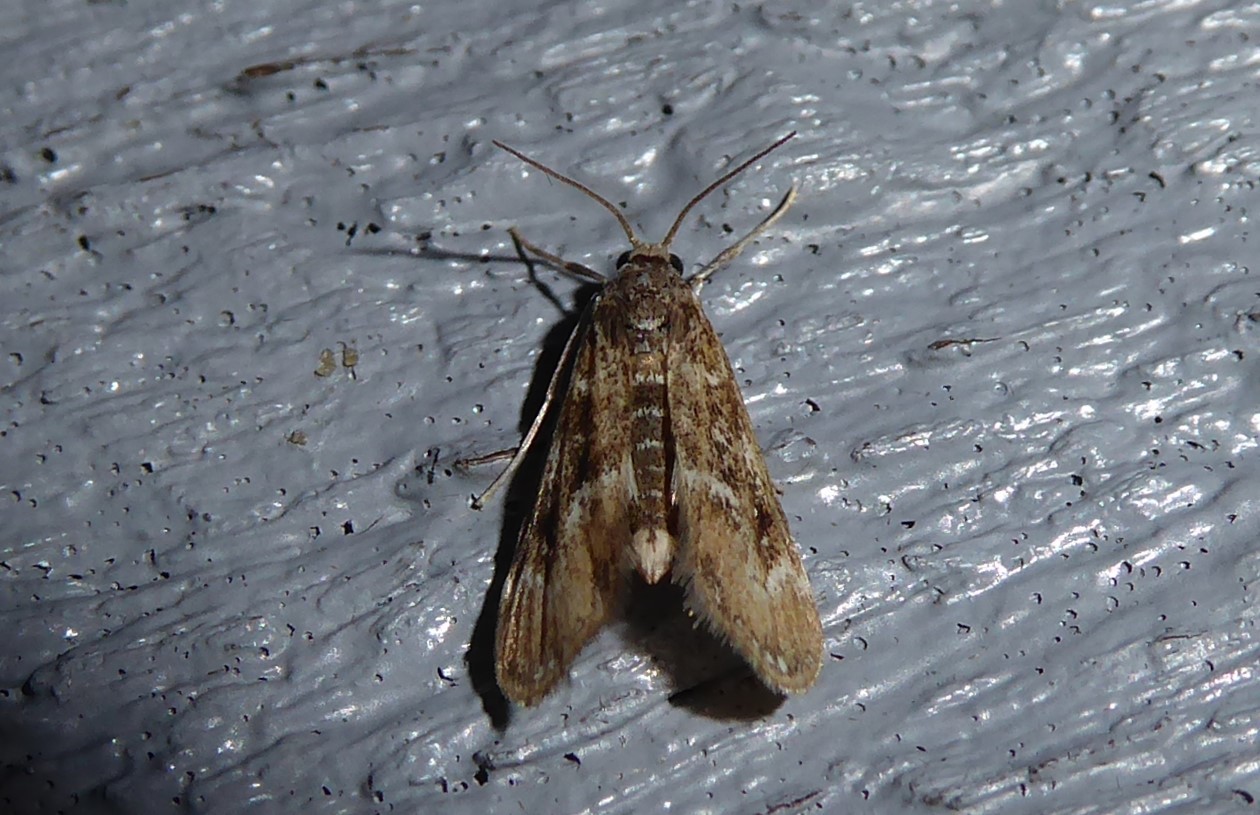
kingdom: Animalia
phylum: Arthropoda
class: Insecta
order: Lepidoptera
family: Crambidae
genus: Hygraula
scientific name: Hygraula nitens
